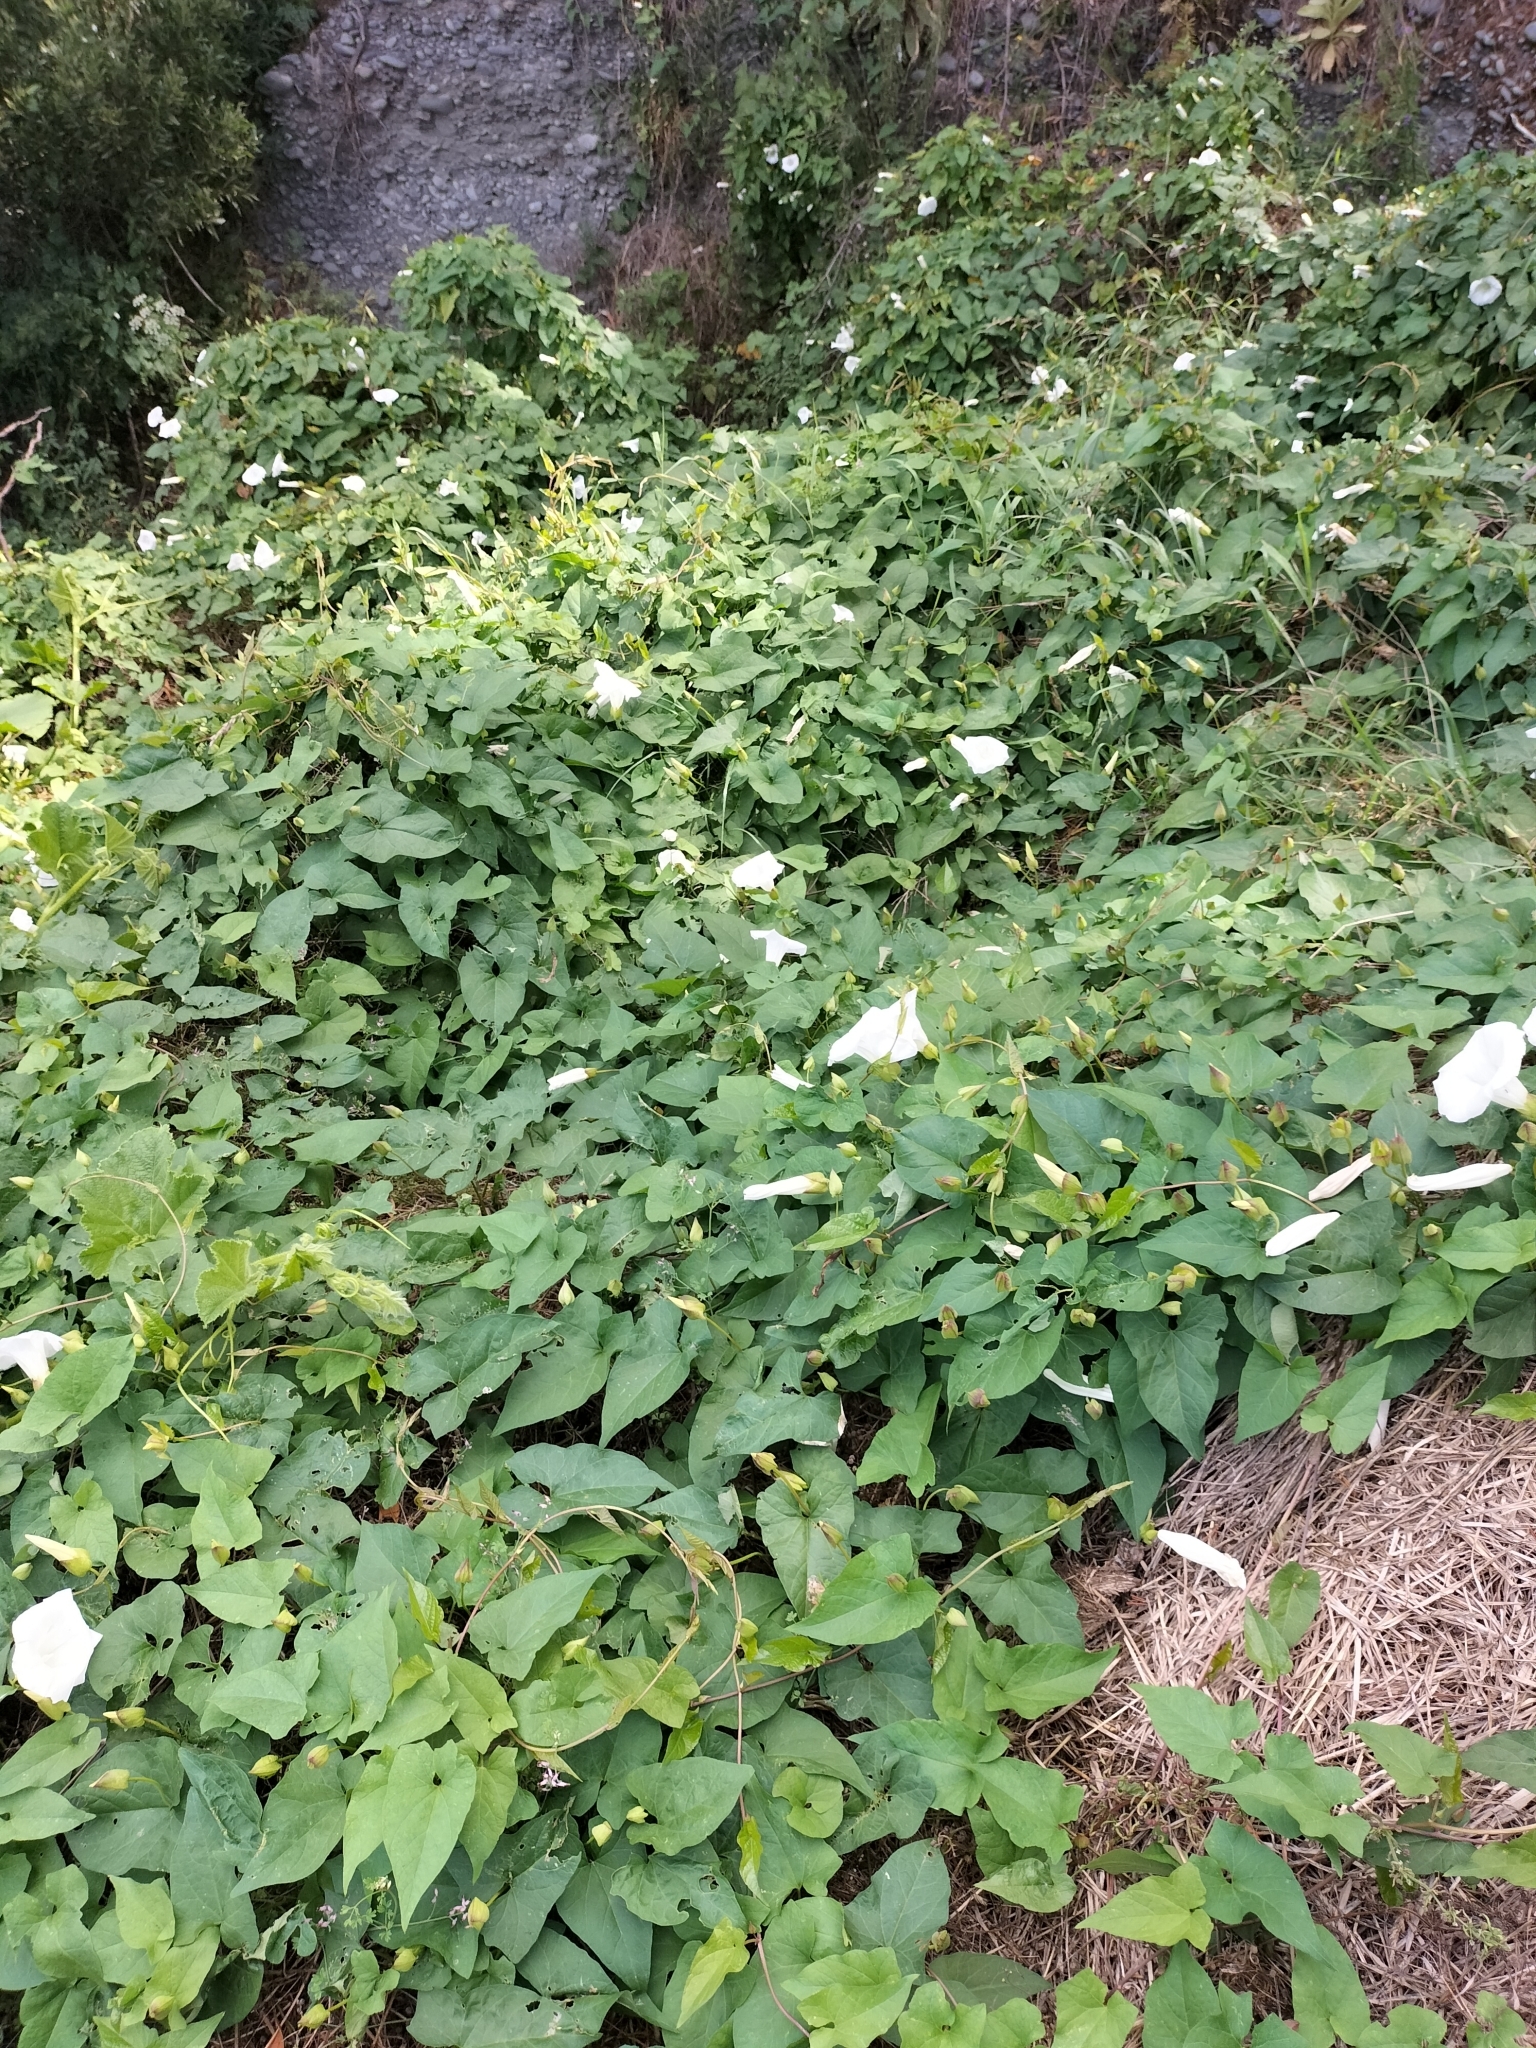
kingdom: Plantae
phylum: Tracheophyta
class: Magnoliopsida
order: Solanales
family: Convolvulaceae
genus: Calystegia
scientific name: Calystegia silvatica
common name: Large bindweed
